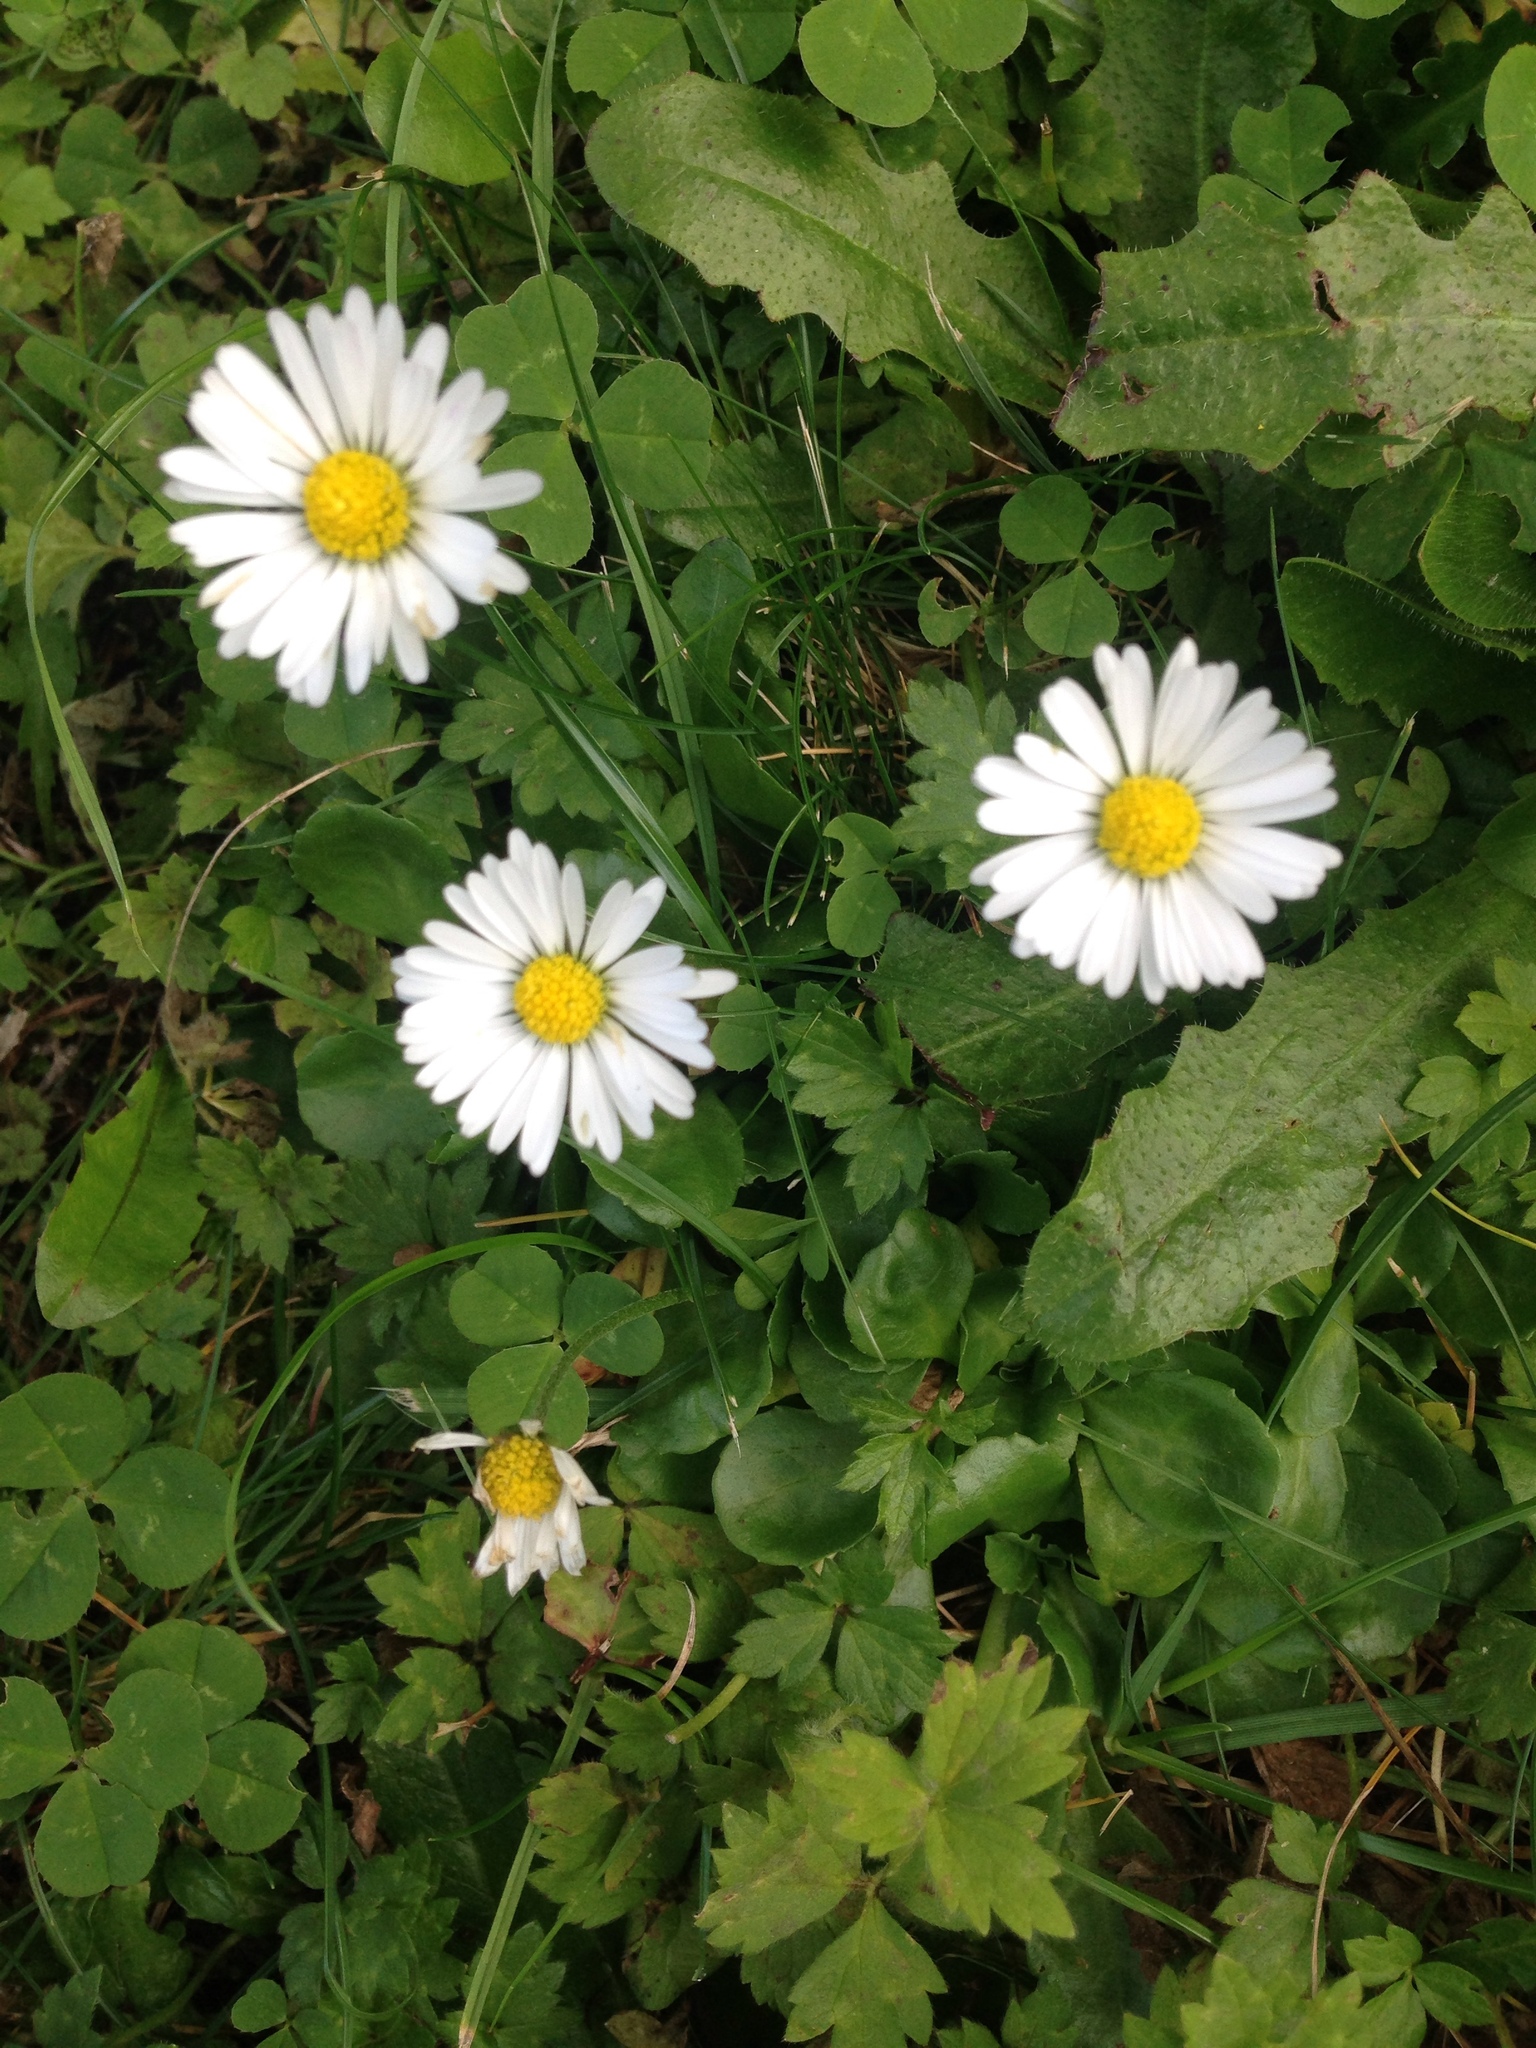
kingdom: Plantae
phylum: Tracheophyta
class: Magnoliopsida
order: Asterales
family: Asteraceae
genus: Bellis
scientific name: Bellis perennis
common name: Lawndaisy
